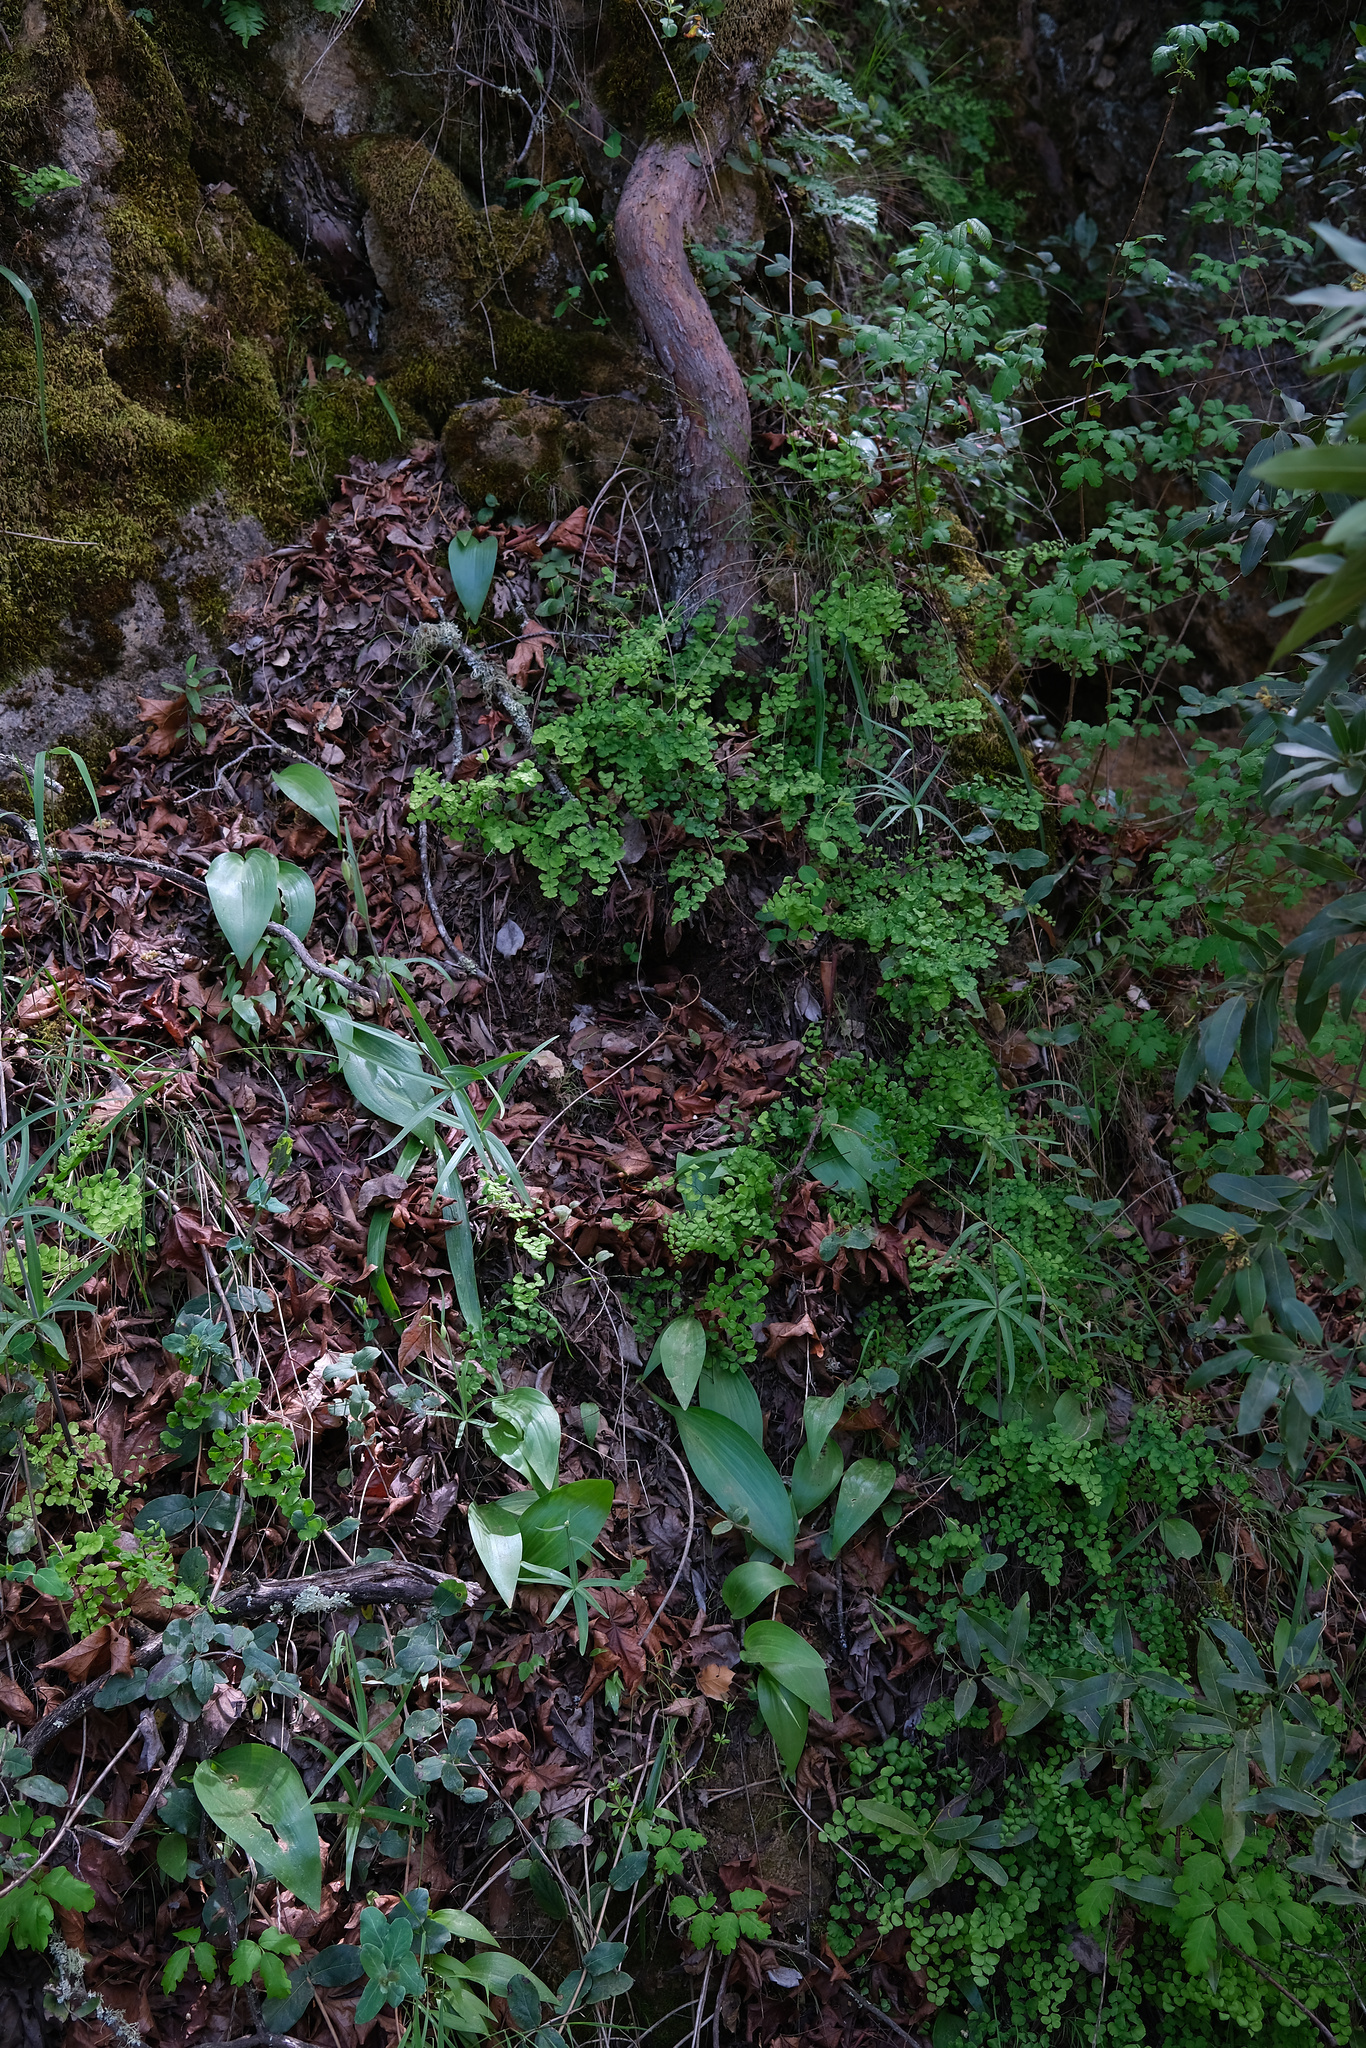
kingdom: Plantae
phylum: Tracheophyta
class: Liliopsida
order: Liliales
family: Liliaceae
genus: Fritillaria
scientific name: Fritillaria affinis
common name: Ojai fritillary
